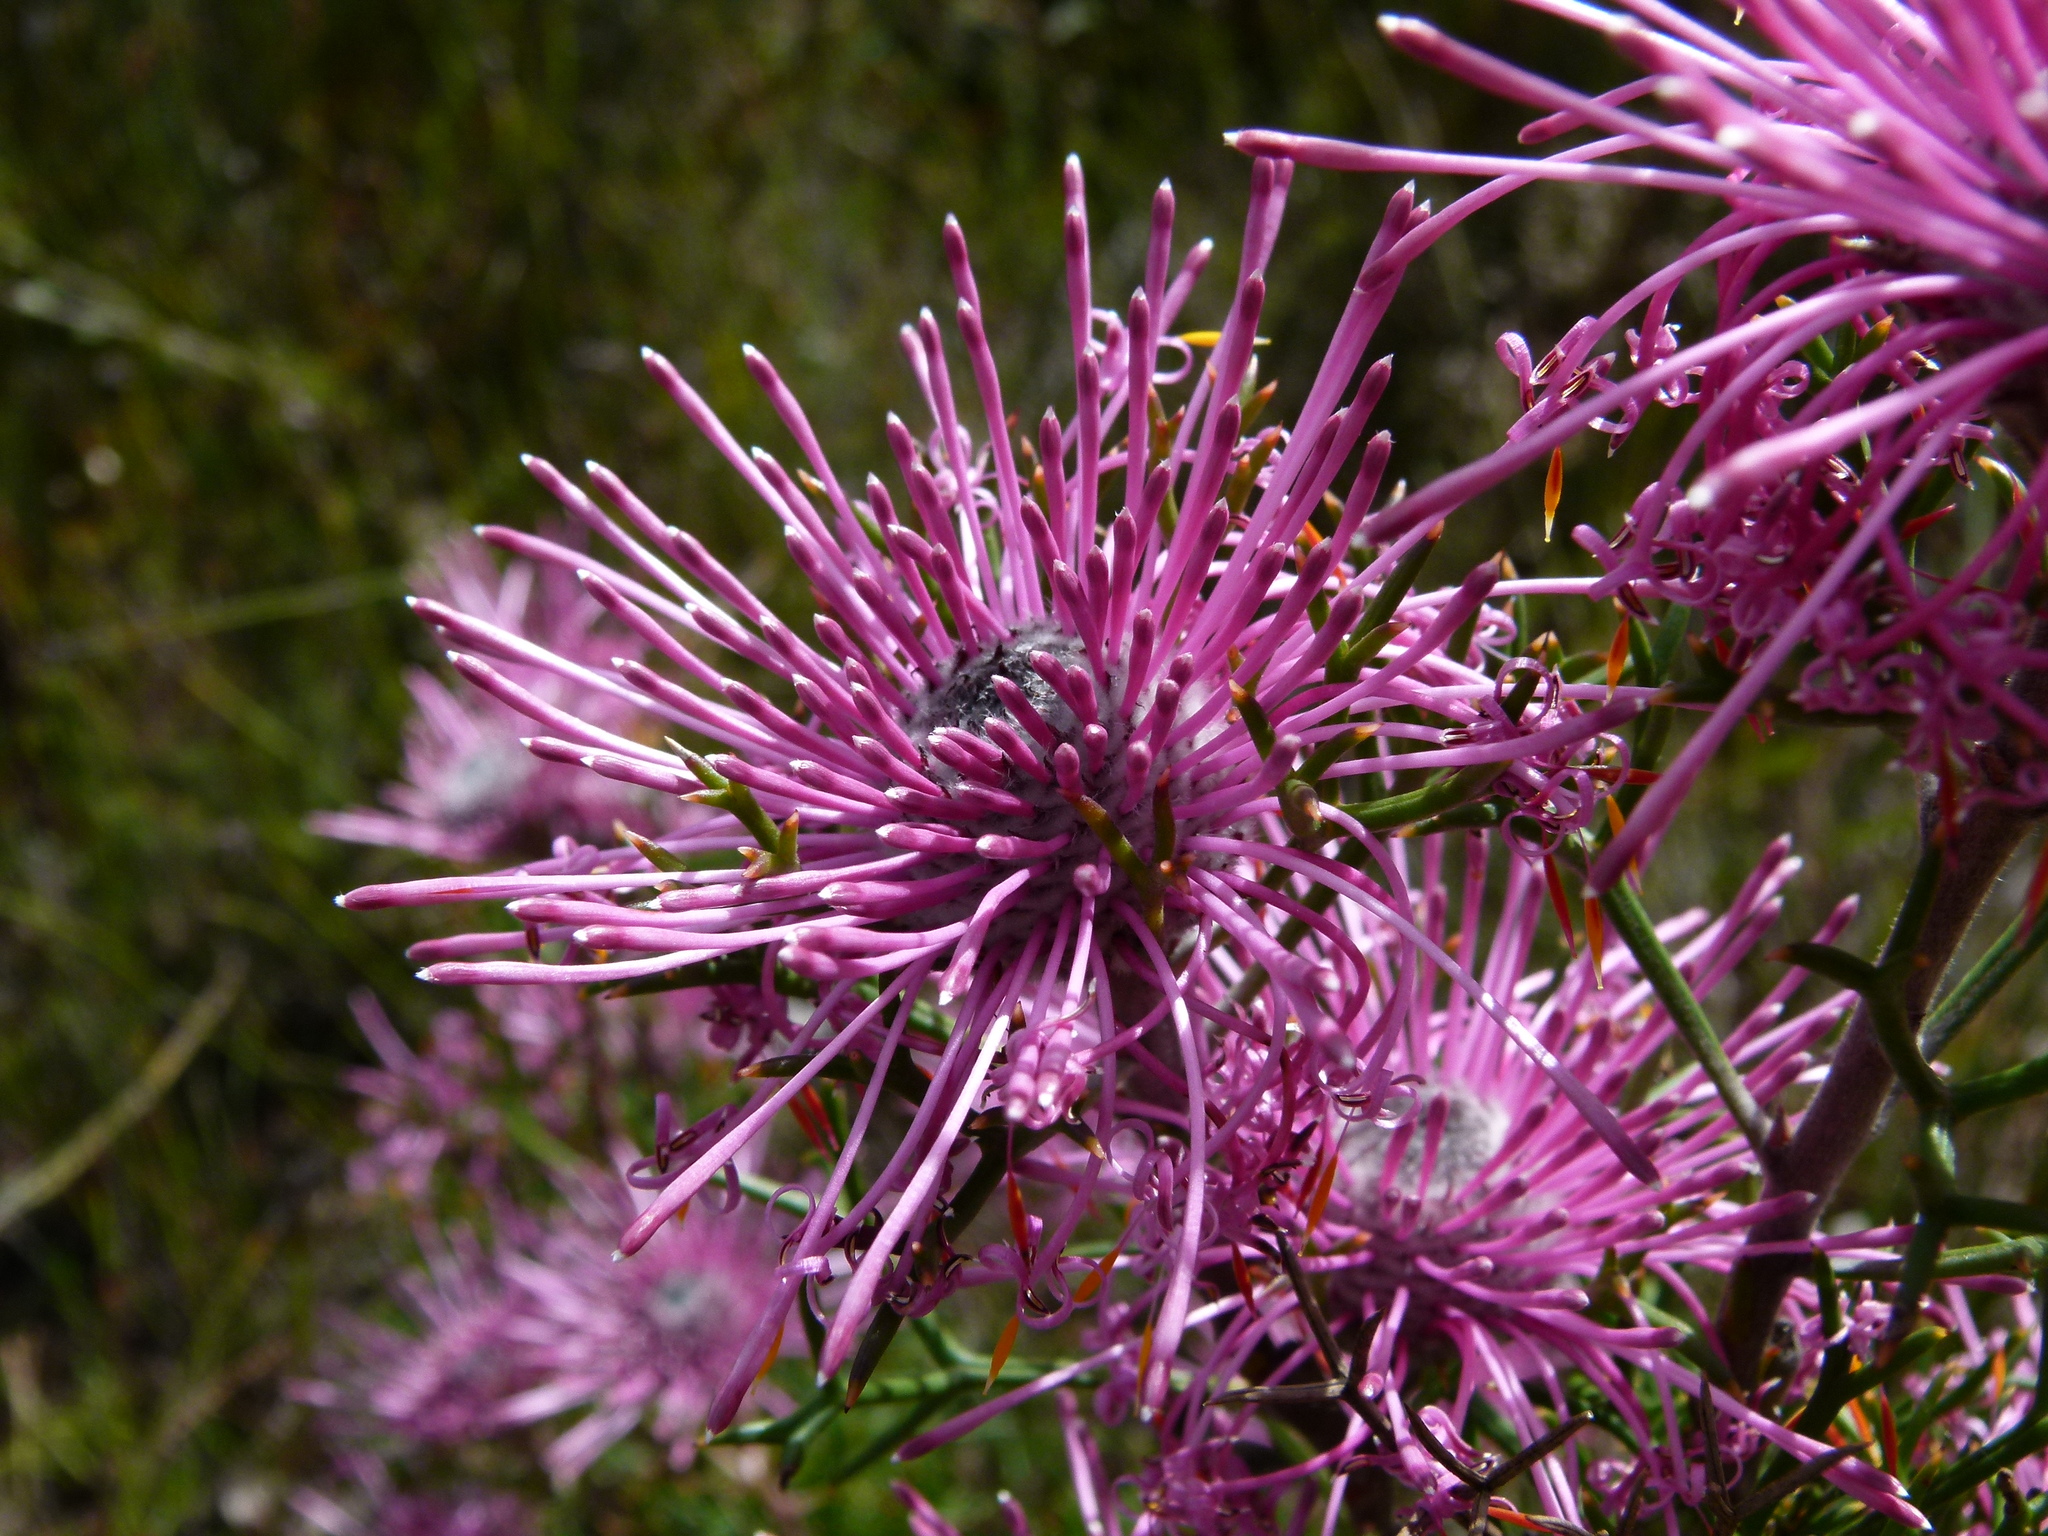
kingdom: Plantae
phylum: Tracheophyta
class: Magnoliopsida
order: Proteales
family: Proteaceae
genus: Isopogon
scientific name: Isopogon formosus
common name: Rose-coneflower
